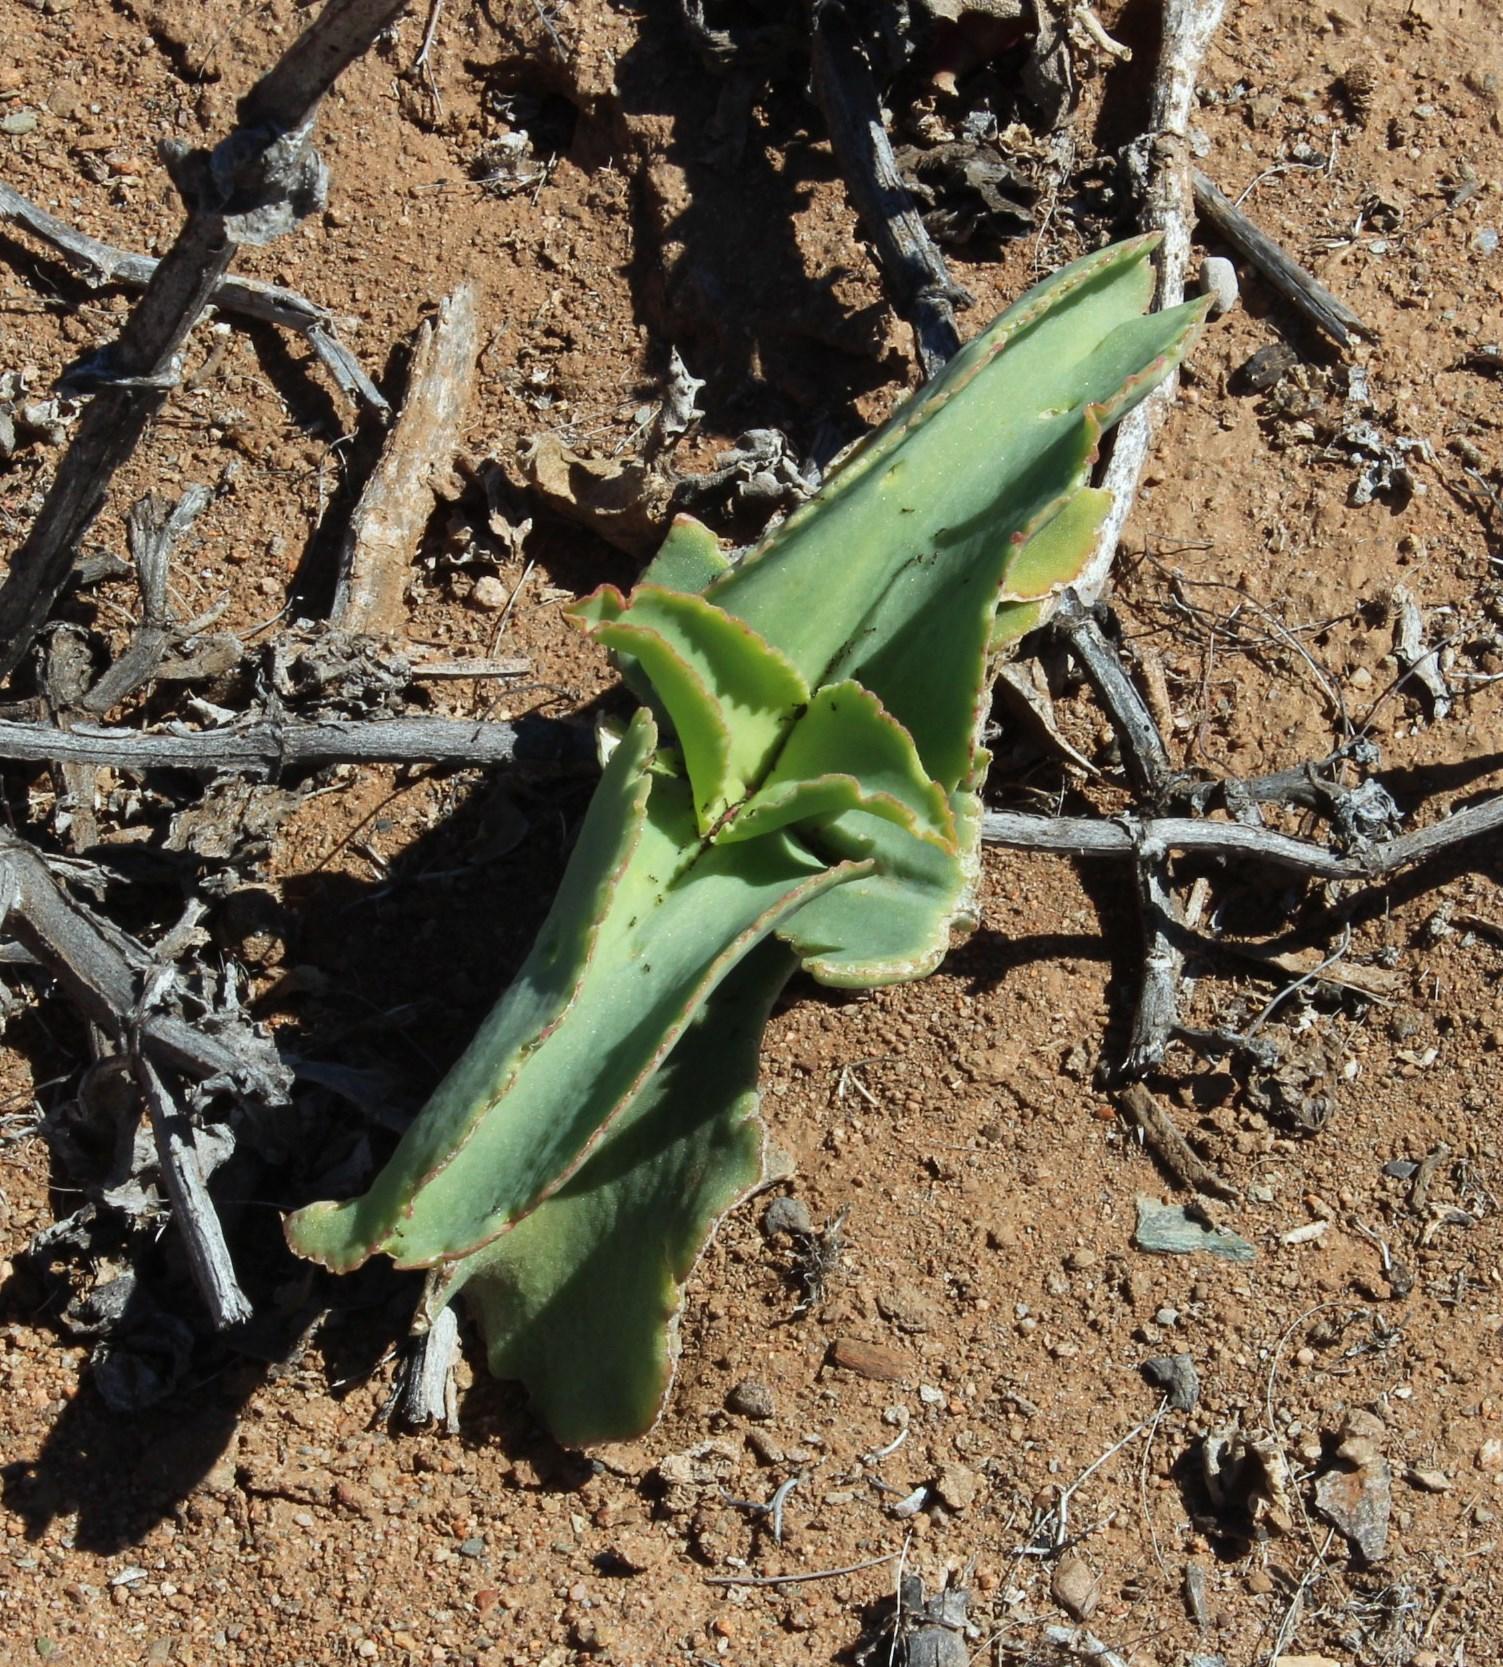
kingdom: Plantae
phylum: Tracheophyta
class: Magnoliopsida
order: Caryophyllales
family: Aizoaceae
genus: Mesembryanthemum
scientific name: Mesembryanthemum barklyi
